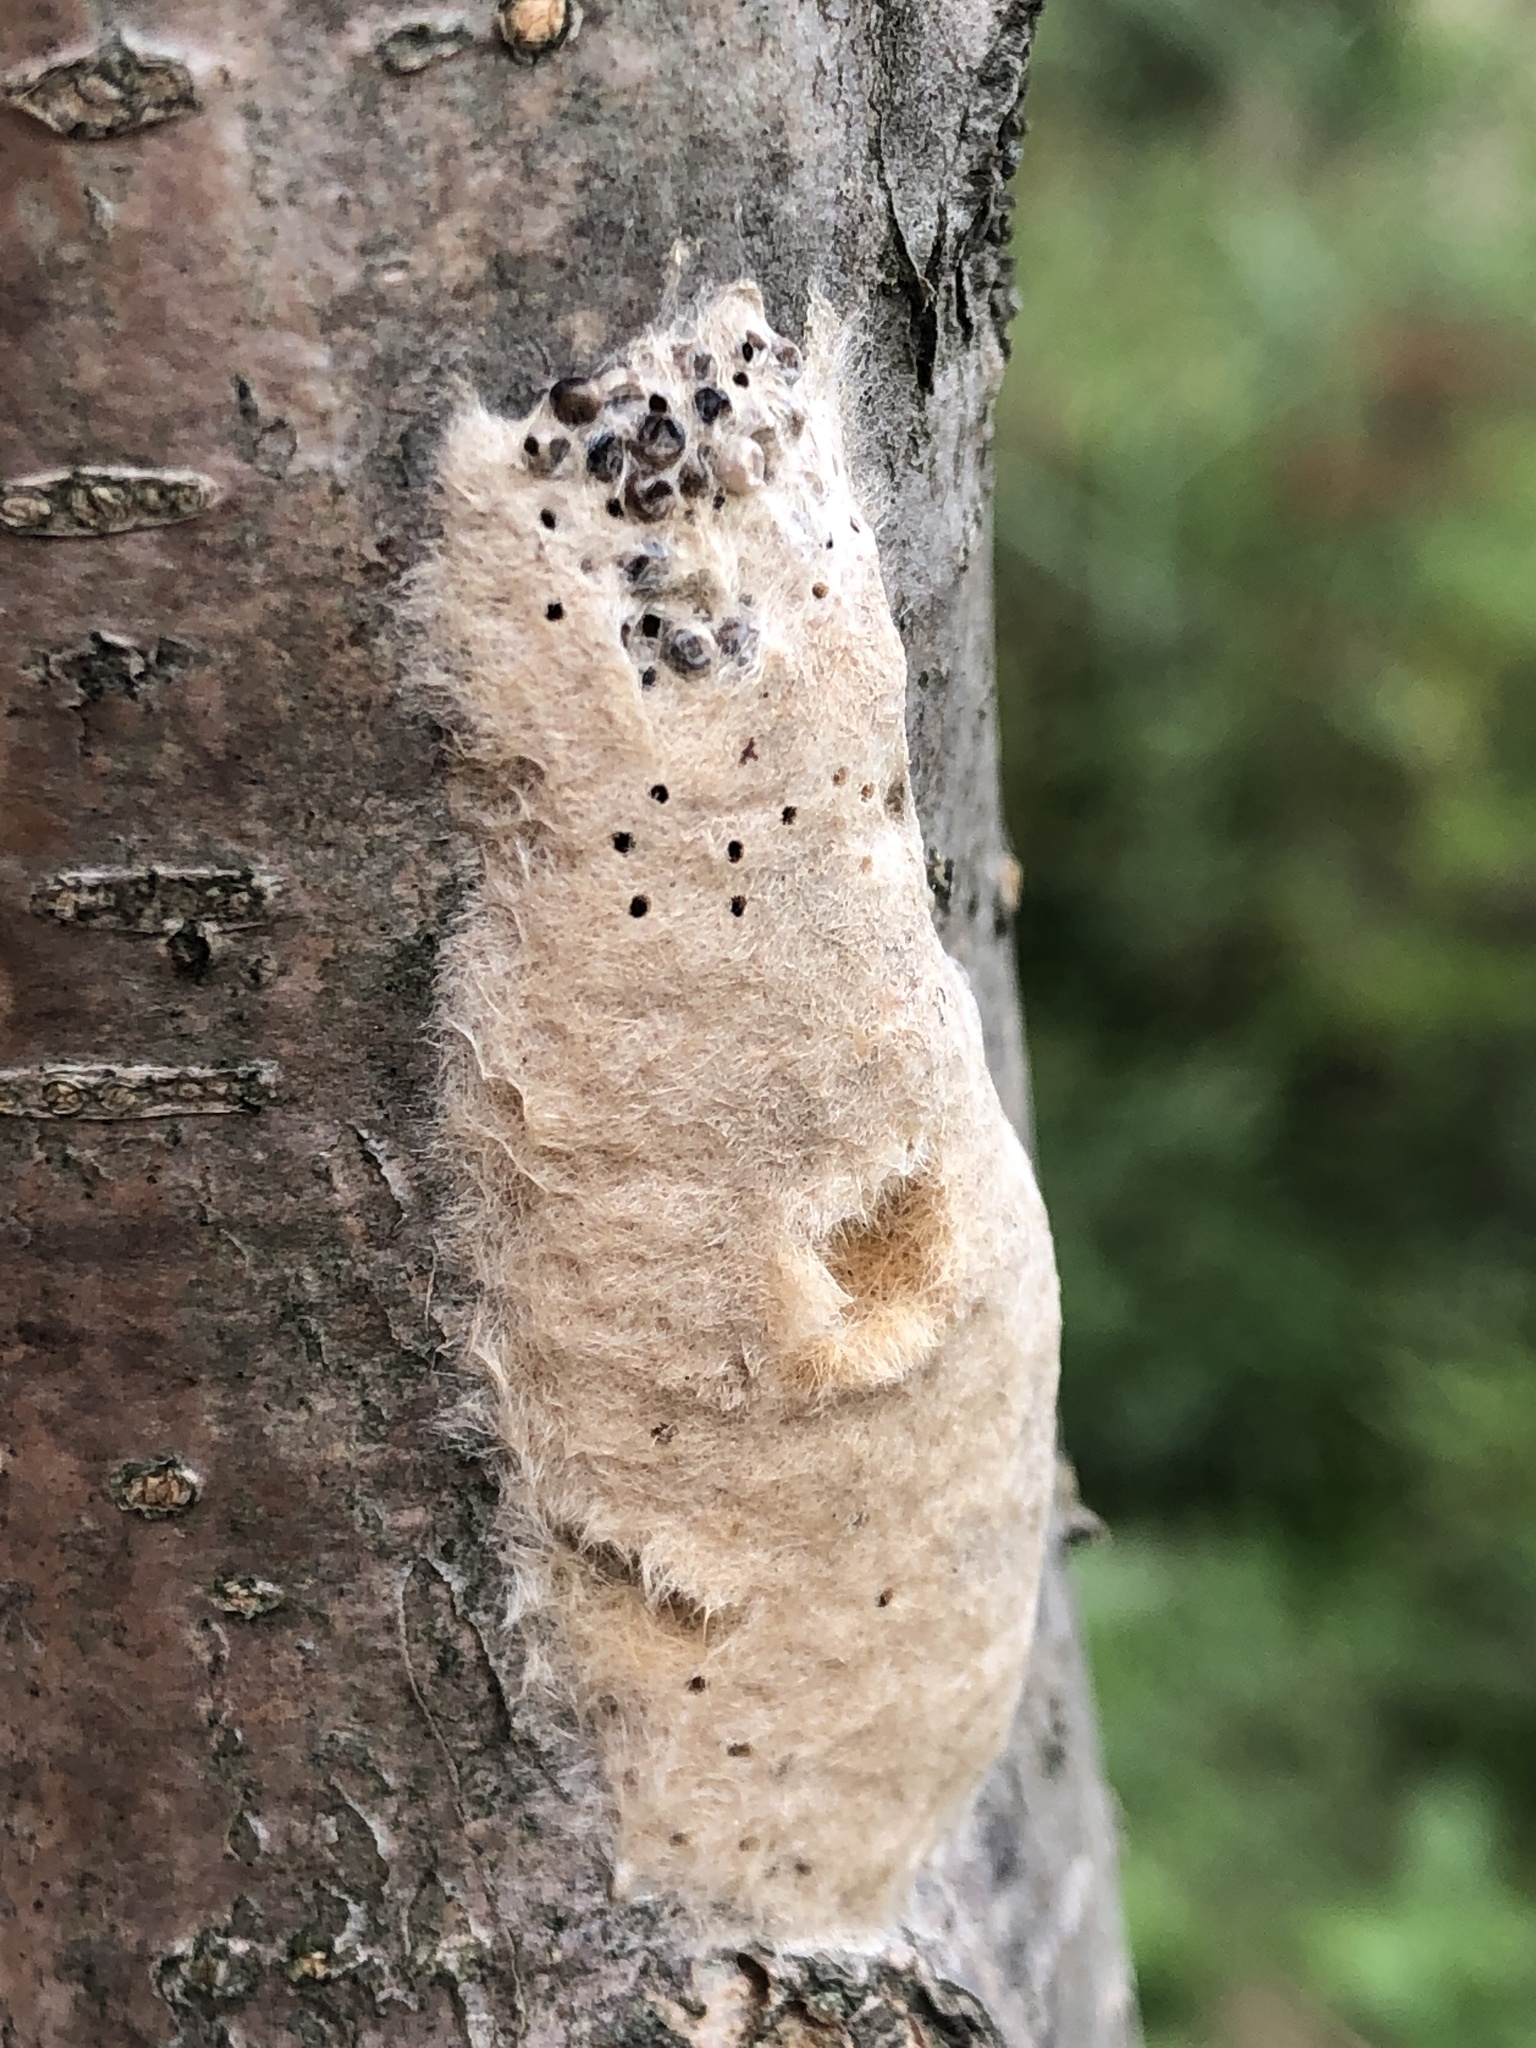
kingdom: Animalia
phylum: Arthropoda
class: Insecta
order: Lepidoptera
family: Erebidae
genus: Lymantria
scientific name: Lymantria dispar
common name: Gypsy moth
